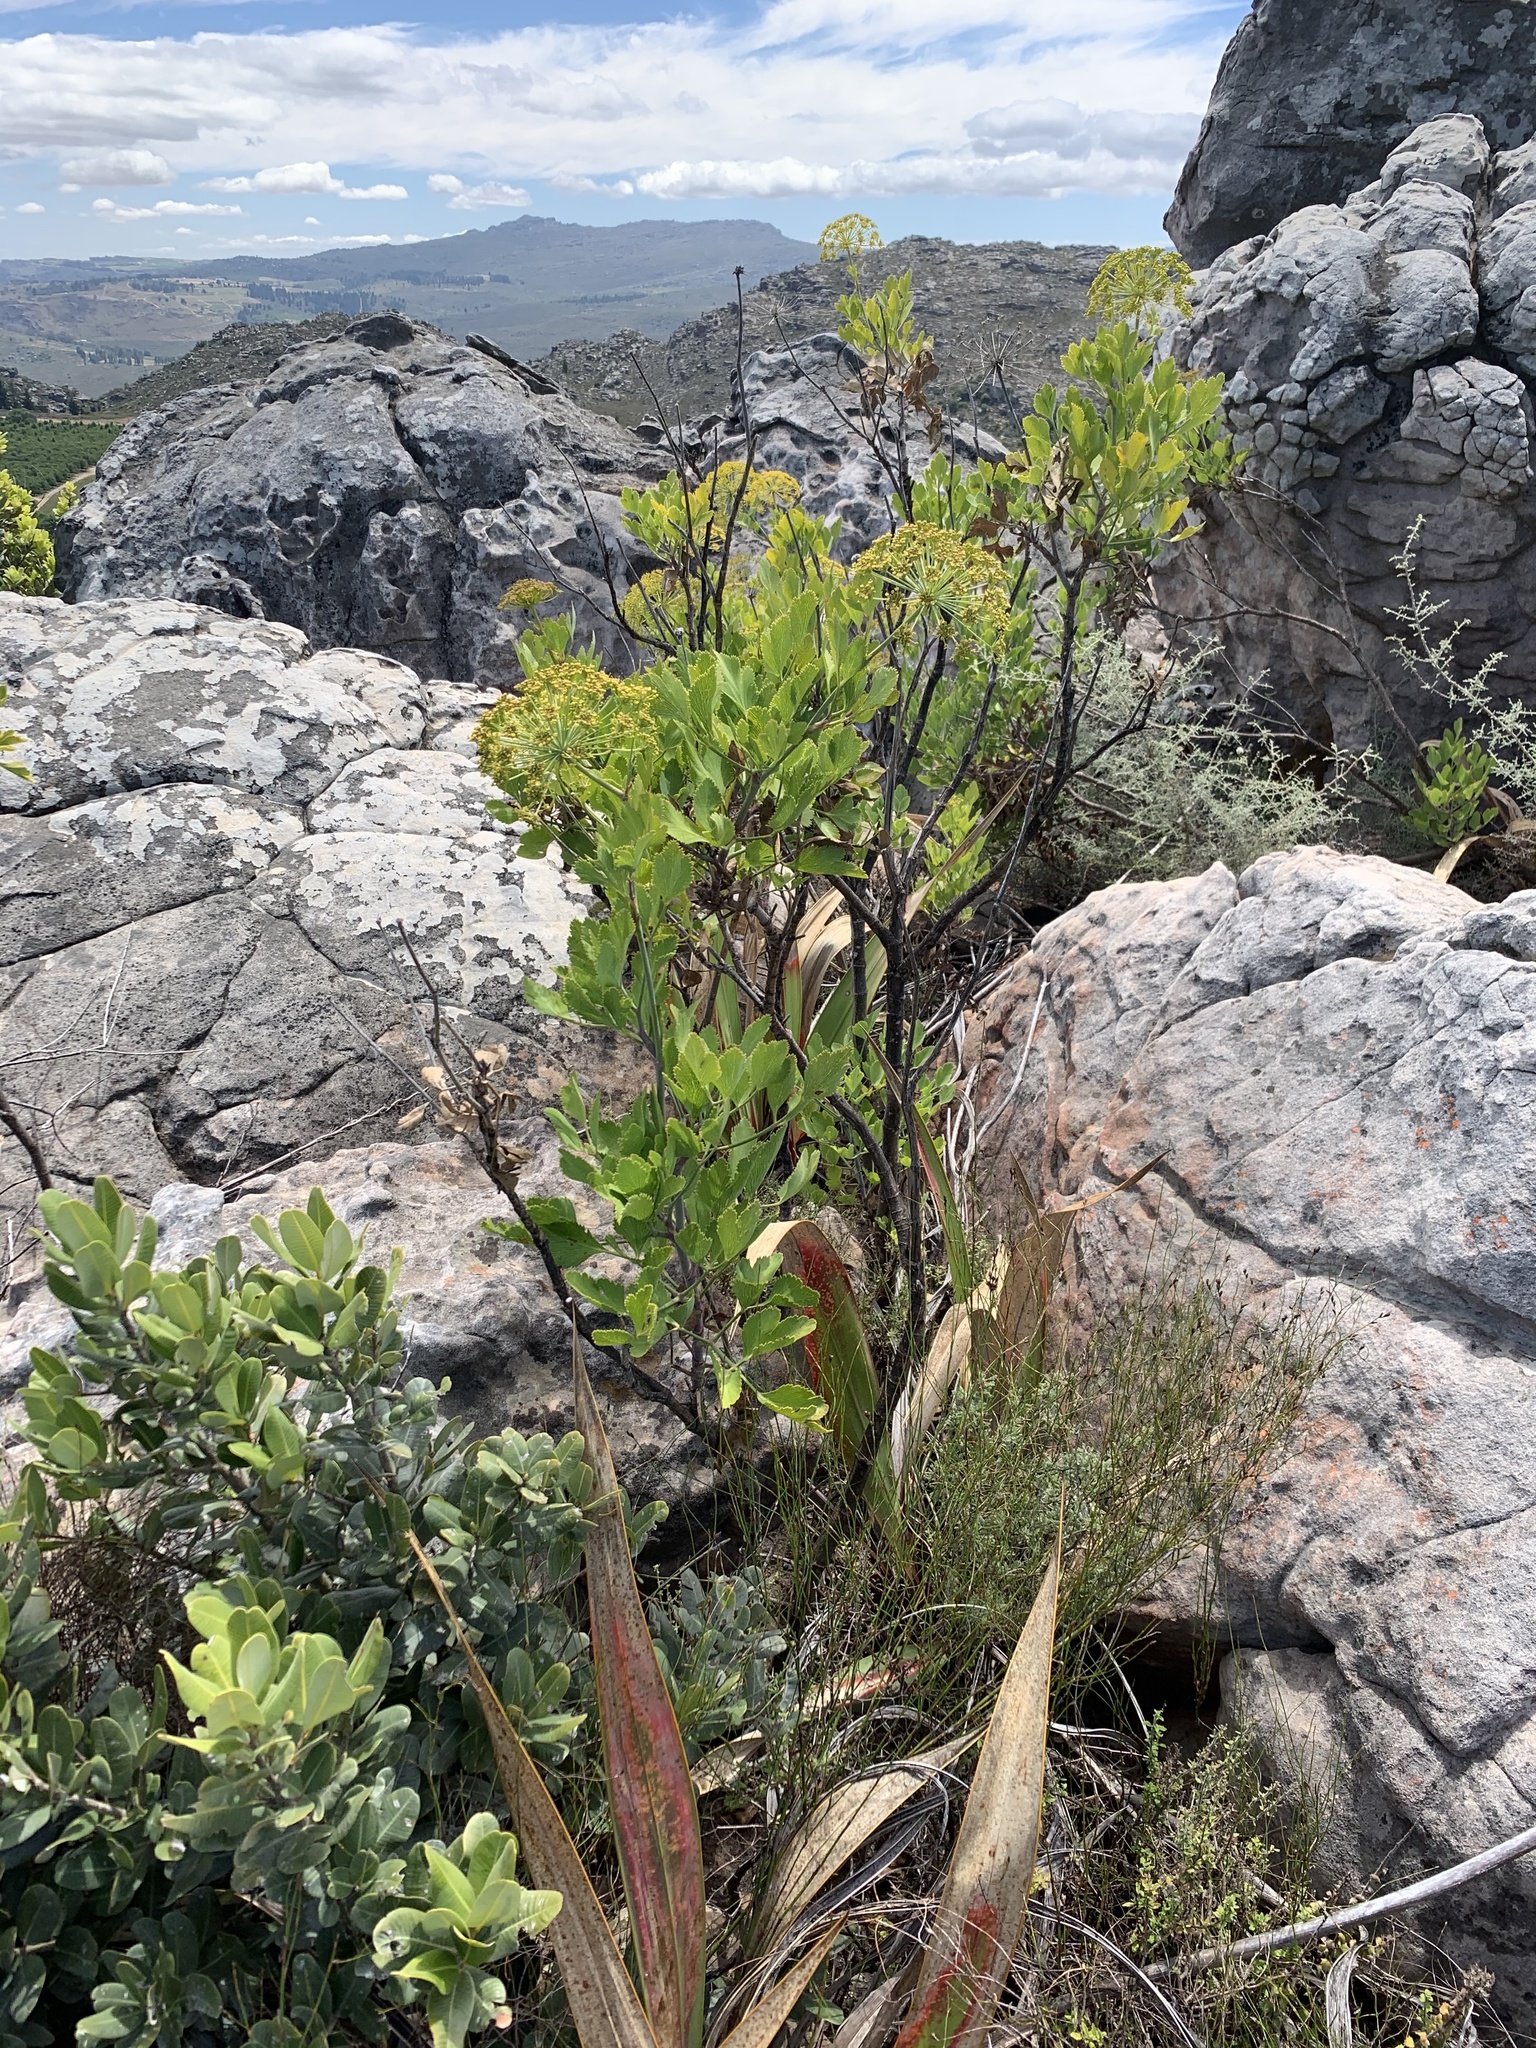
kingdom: Plantae
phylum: Tracheophyta
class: Magnoliopsida
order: Apiales
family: Apiaceae
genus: Notobubon
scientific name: Notobubon galbanum
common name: Blisterbush
